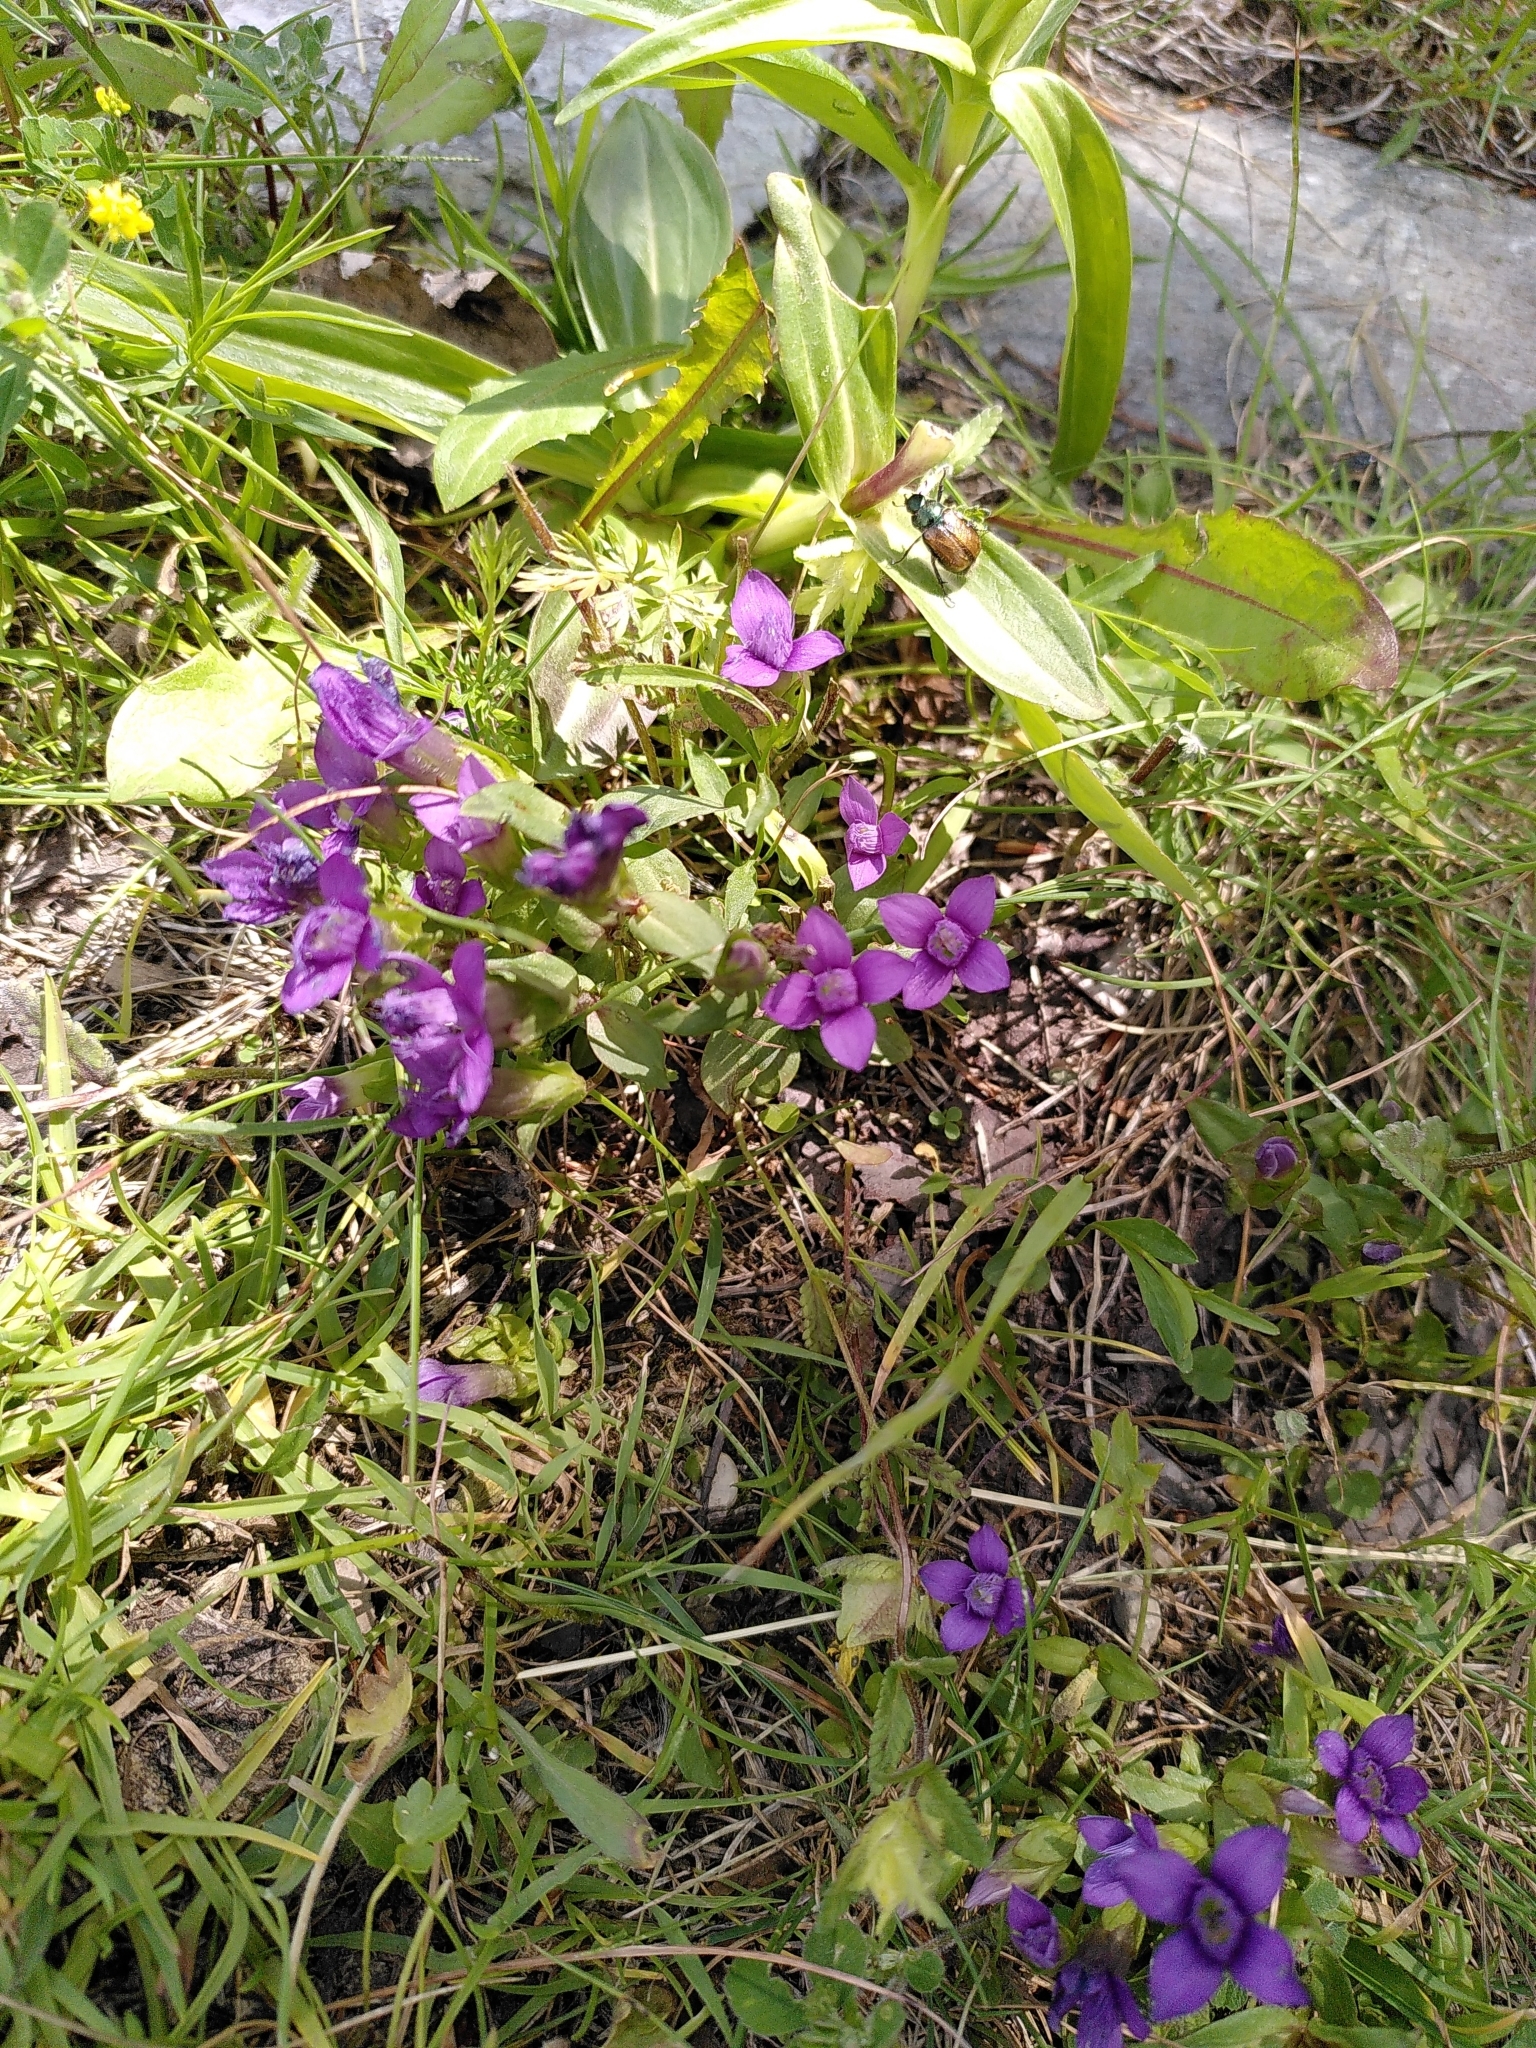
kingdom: Plantae
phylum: Tracheophyta
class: Magnoliopsida
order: Gentianales
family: Gentianaceae
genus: Gentianella
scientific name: Gentianella campestris
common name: Field gentian
